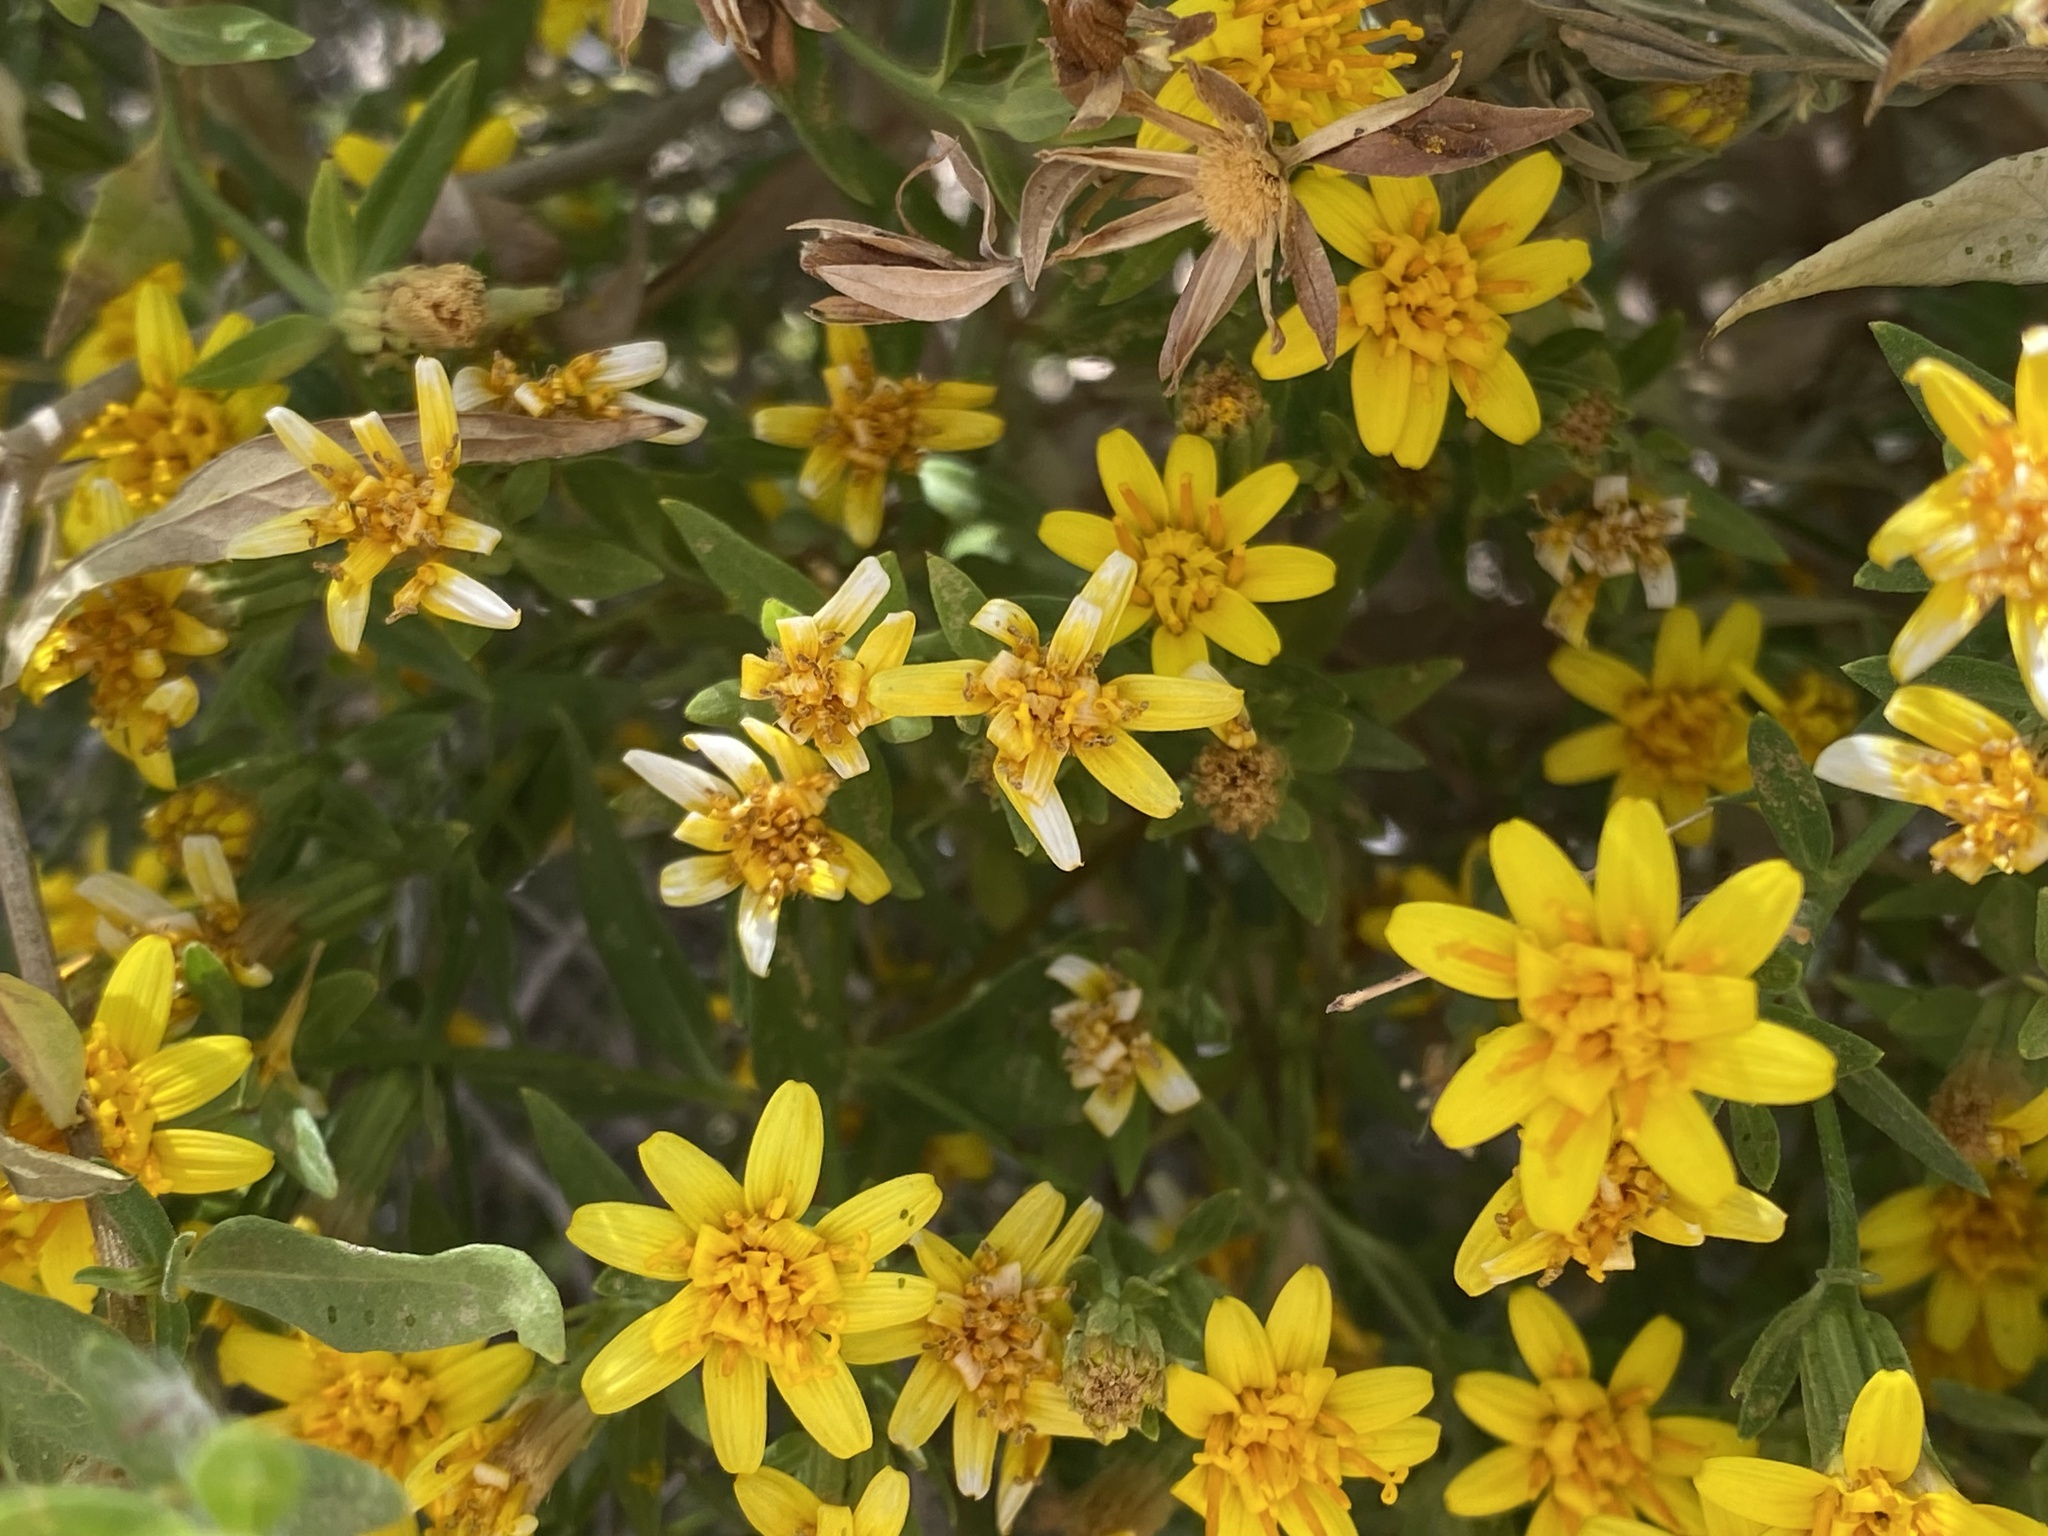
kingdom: Plantae
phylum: Tracheophyta
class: Magnoliopsida
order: Asterales
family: Asteraceae
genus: Trixis
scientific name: Trixis californica
